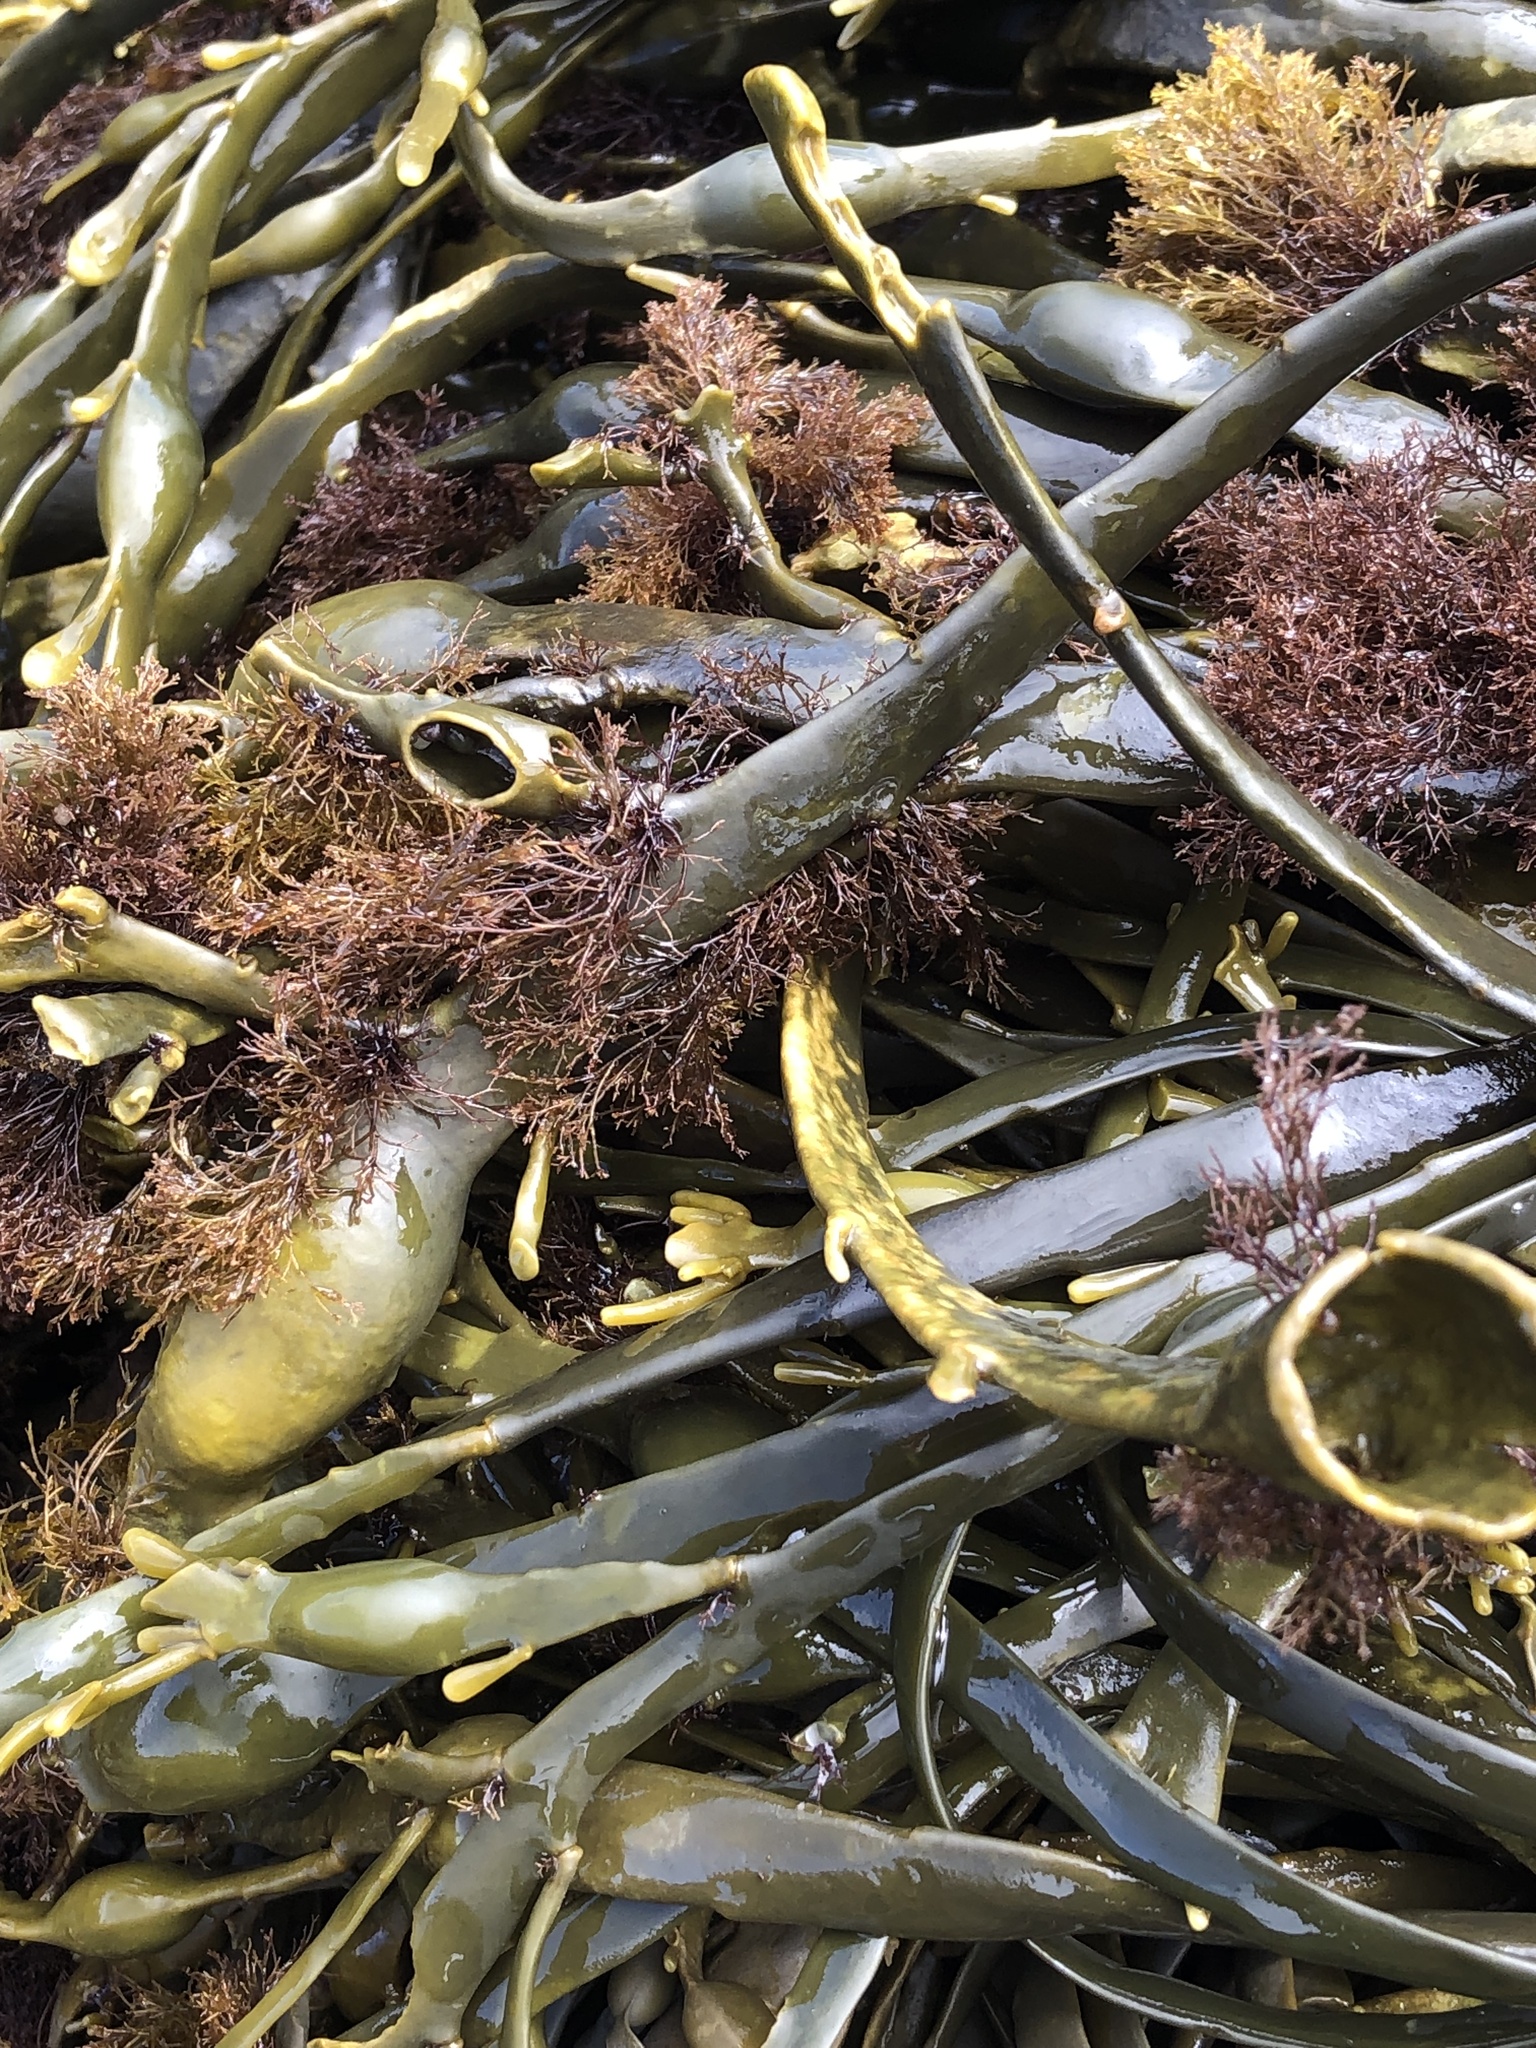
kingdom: Chromista
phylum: Ochrophyta
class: Phaeophyceae
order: Fucales
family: Fucaceae
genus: Ascophyllum
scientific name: Ascophyllum nodosum
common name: Knotted wrack
